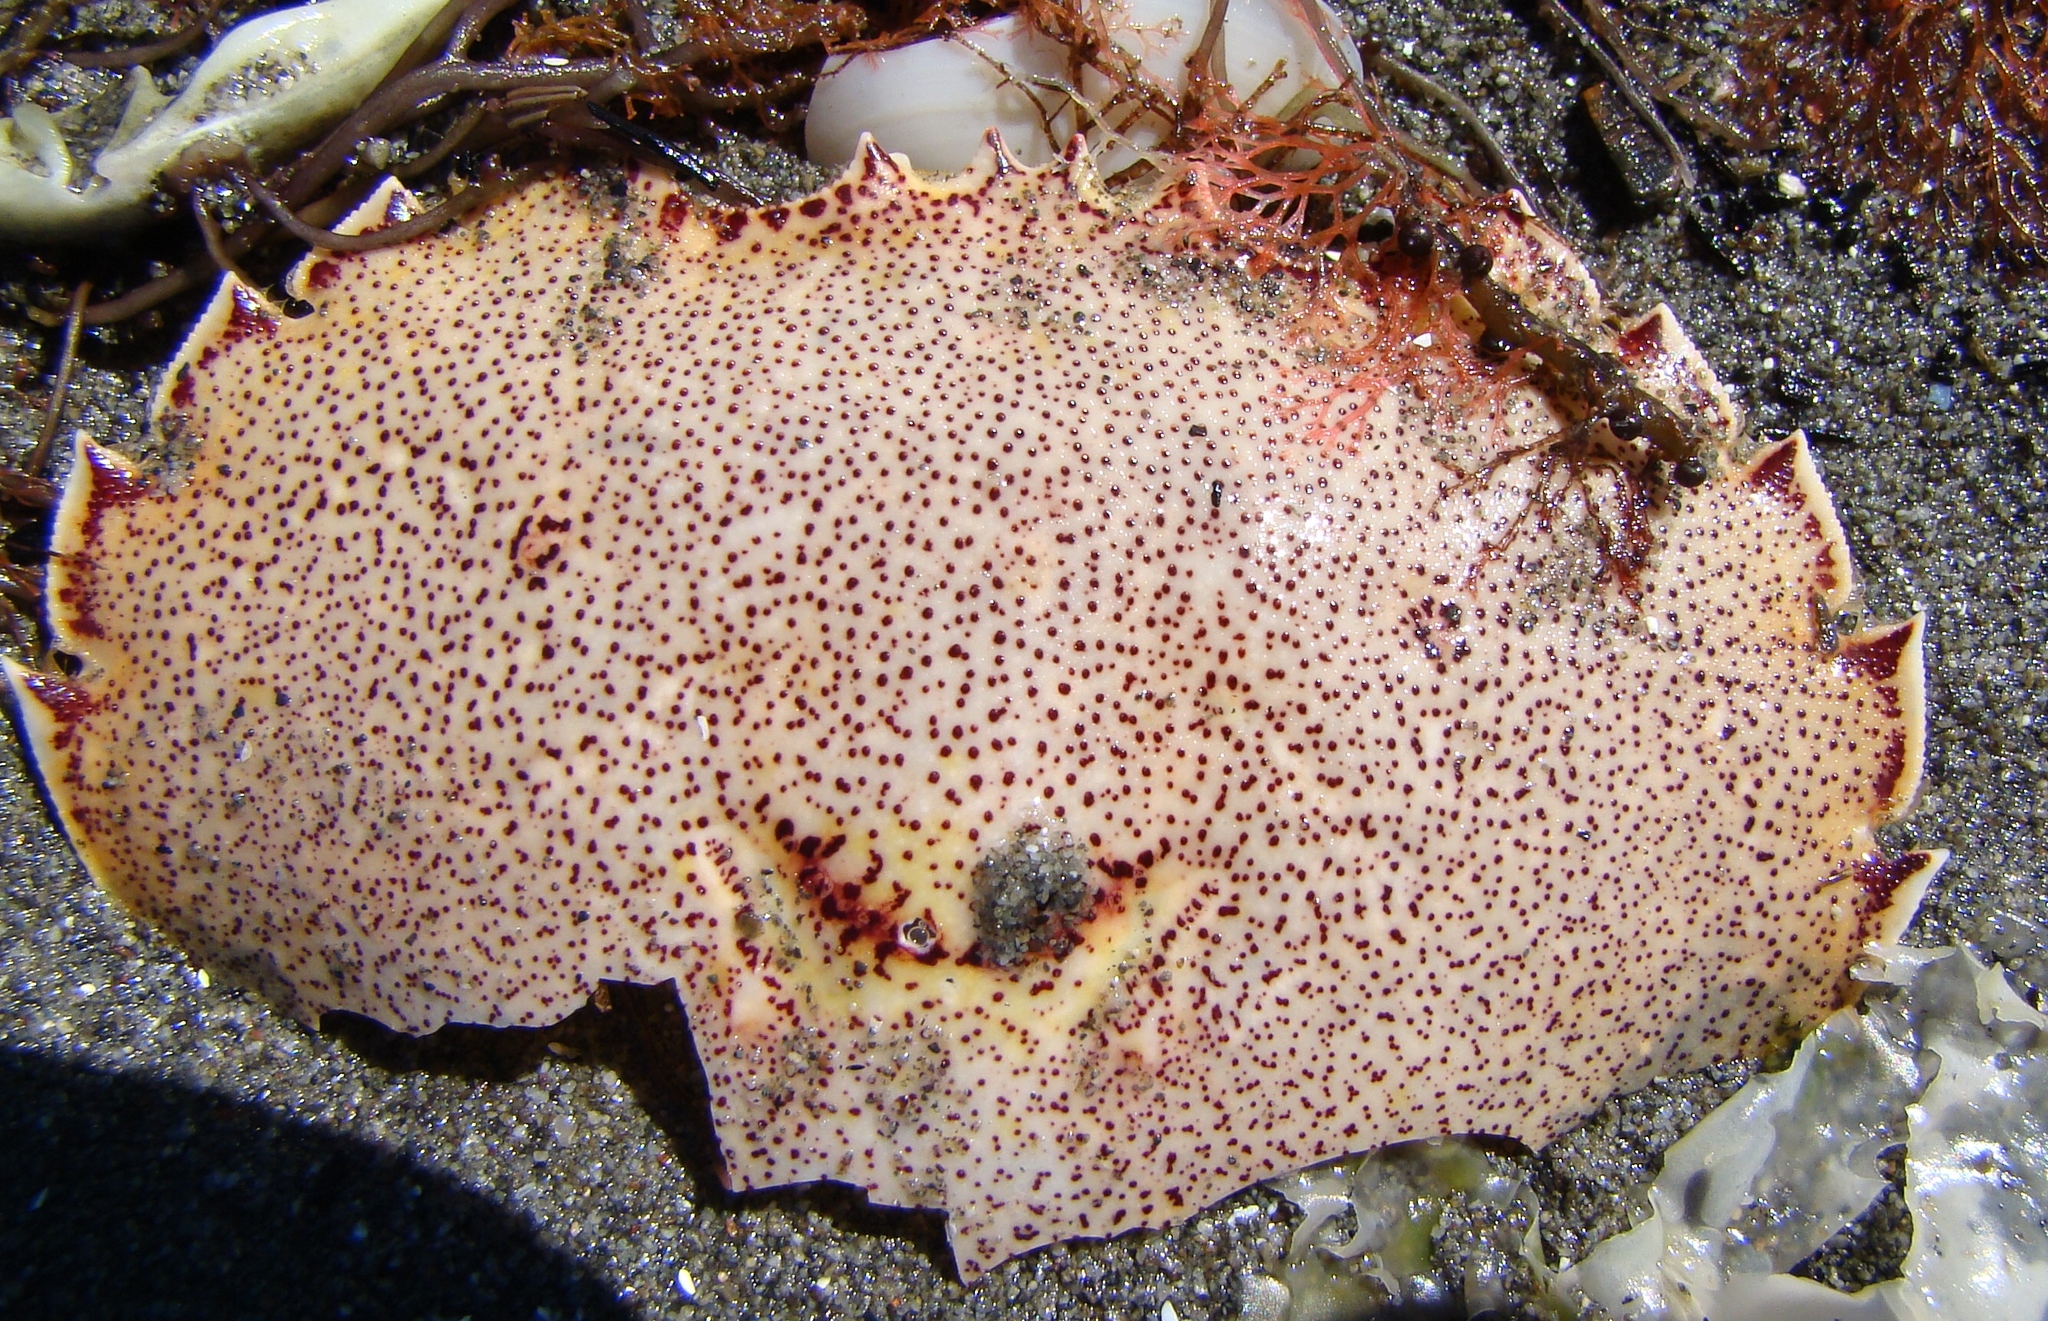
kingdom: Animalia
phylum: Arthropoda
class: Malacostraca
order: Decapoda
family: Ovalipidae
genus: Ovalipes
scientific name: Ovalipes catharus
